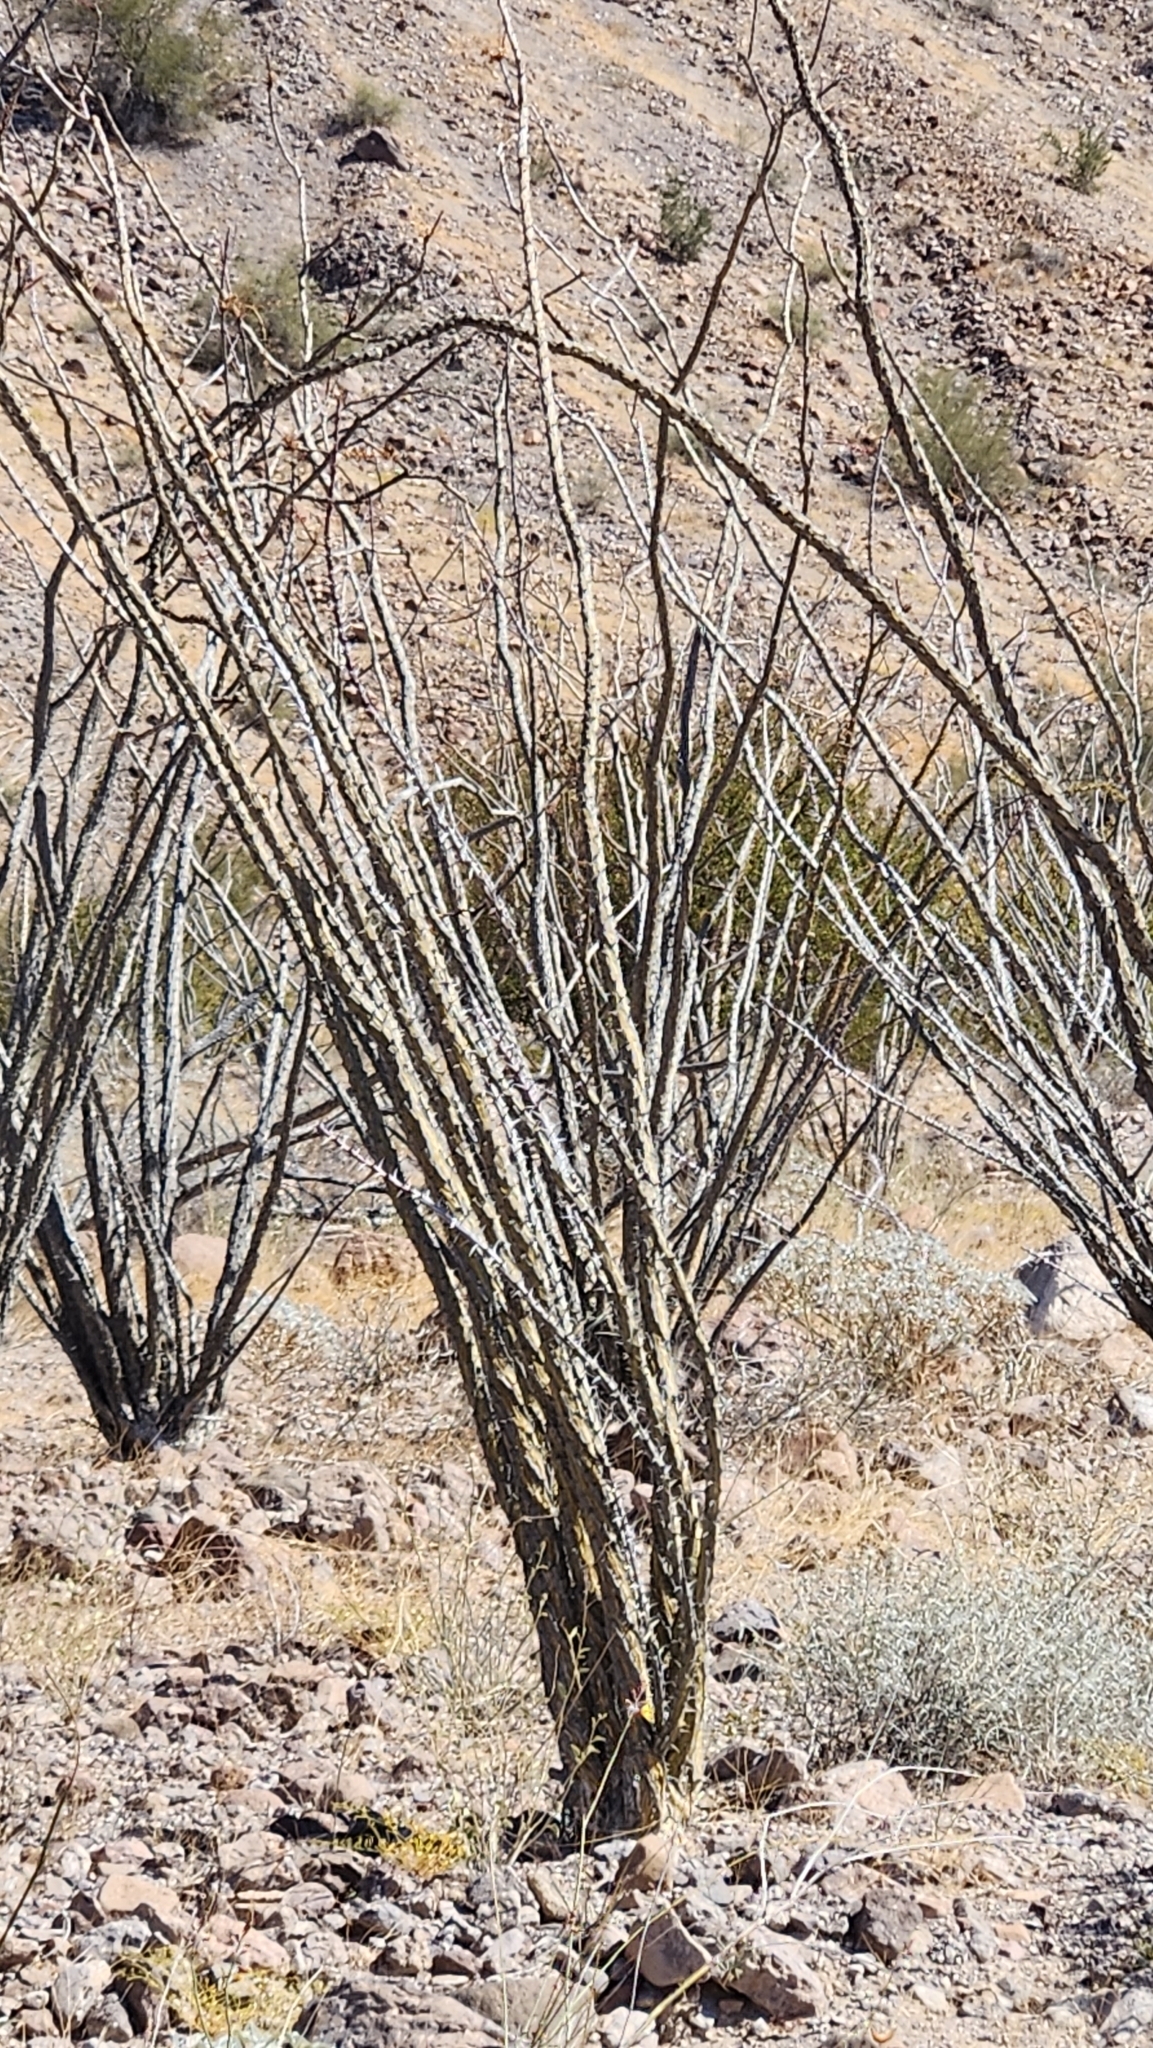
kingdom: Plantae
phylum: Tracheophyta
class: Magnoliopsida
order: Ericales
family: Fouquieriaceae
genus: Fouquieria
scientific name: Fouquieria splendens
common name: Vine-cactus
